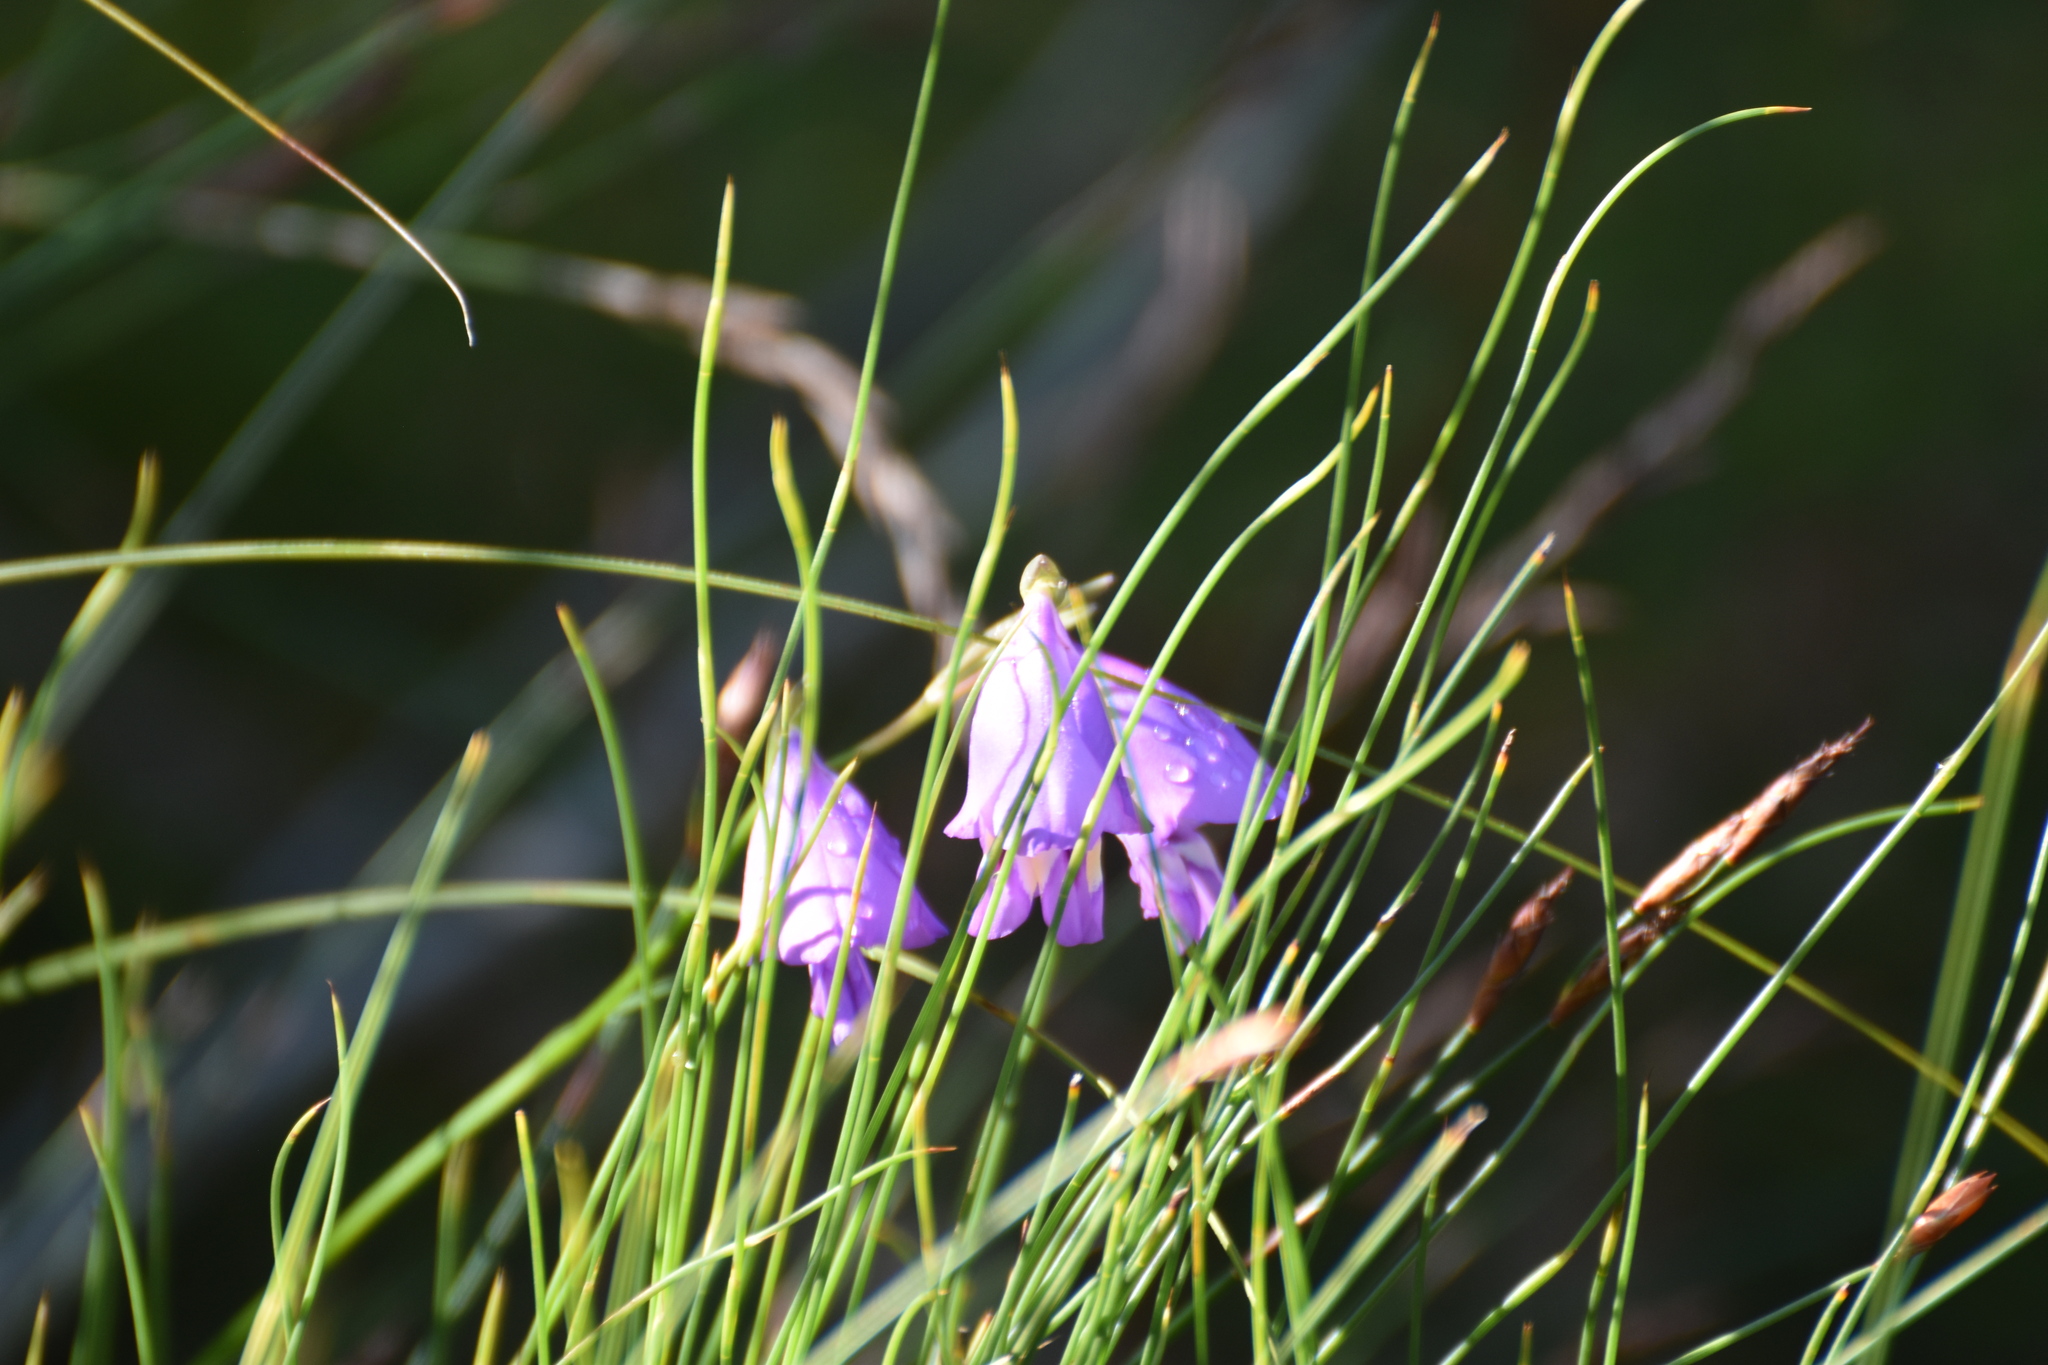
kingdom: Plantae
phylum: Tracheophyta
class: Liliopsida
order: Asparagales
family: Iridaceae
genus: Gladiolus
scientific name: Gladiolus rogersii
